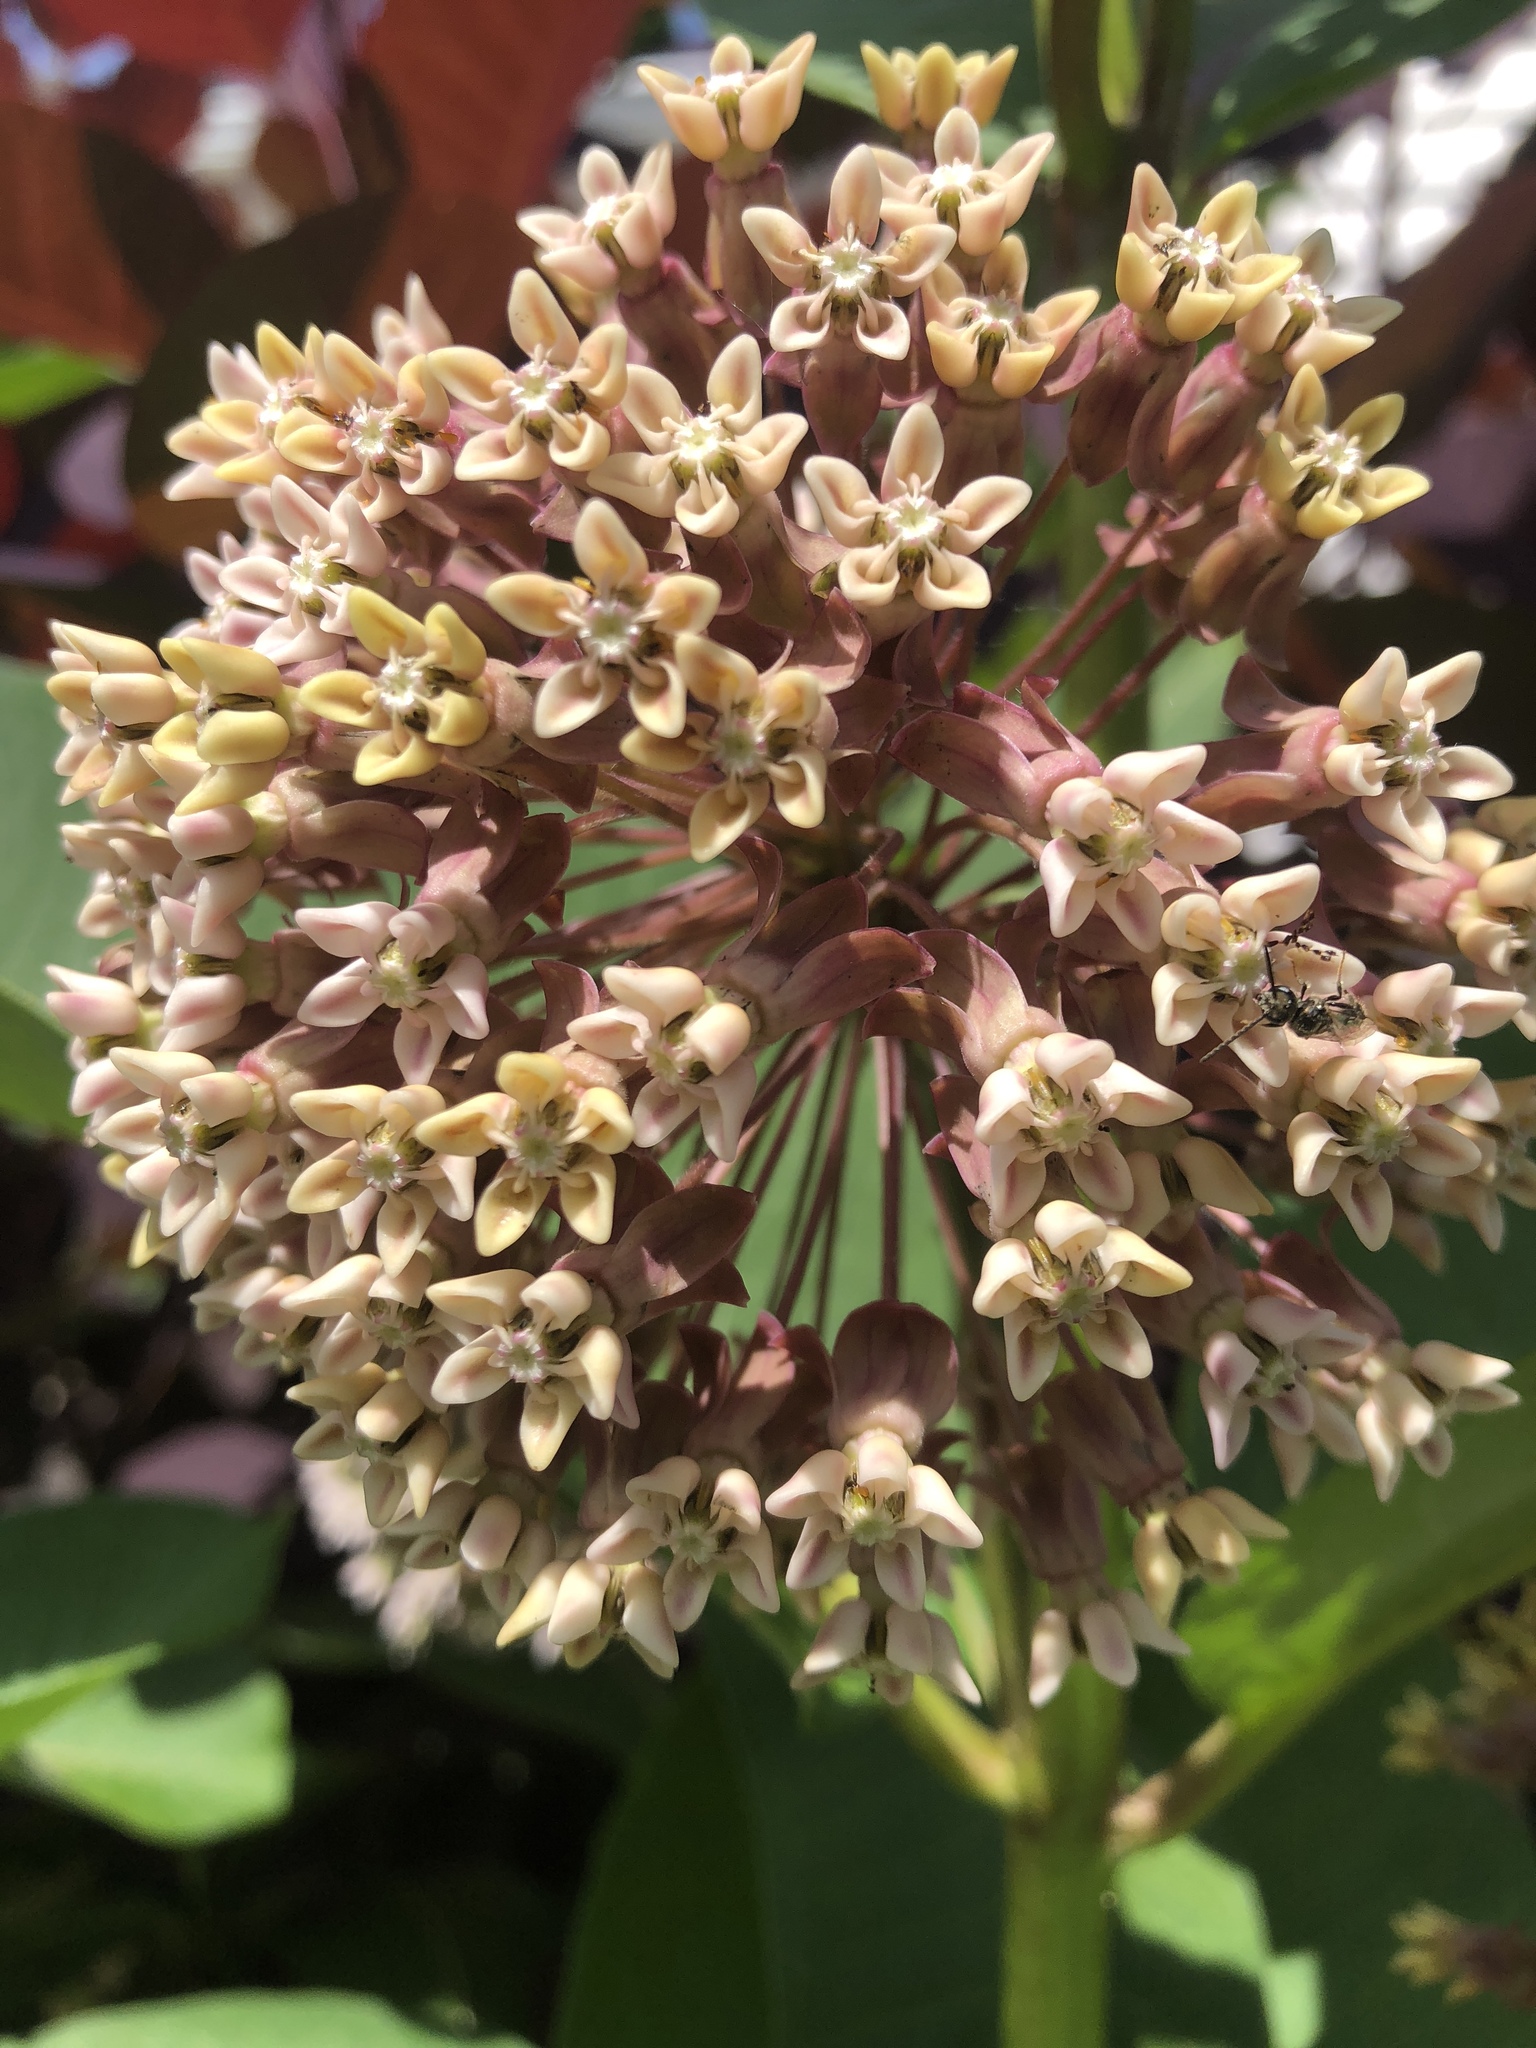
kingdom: Plantae
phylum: Tracheophyta
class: Magnoliopsida
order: Gentianales
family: Apocynaceae
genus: Asclepias
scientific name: Asclepias syriaca
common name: Common milkweed
